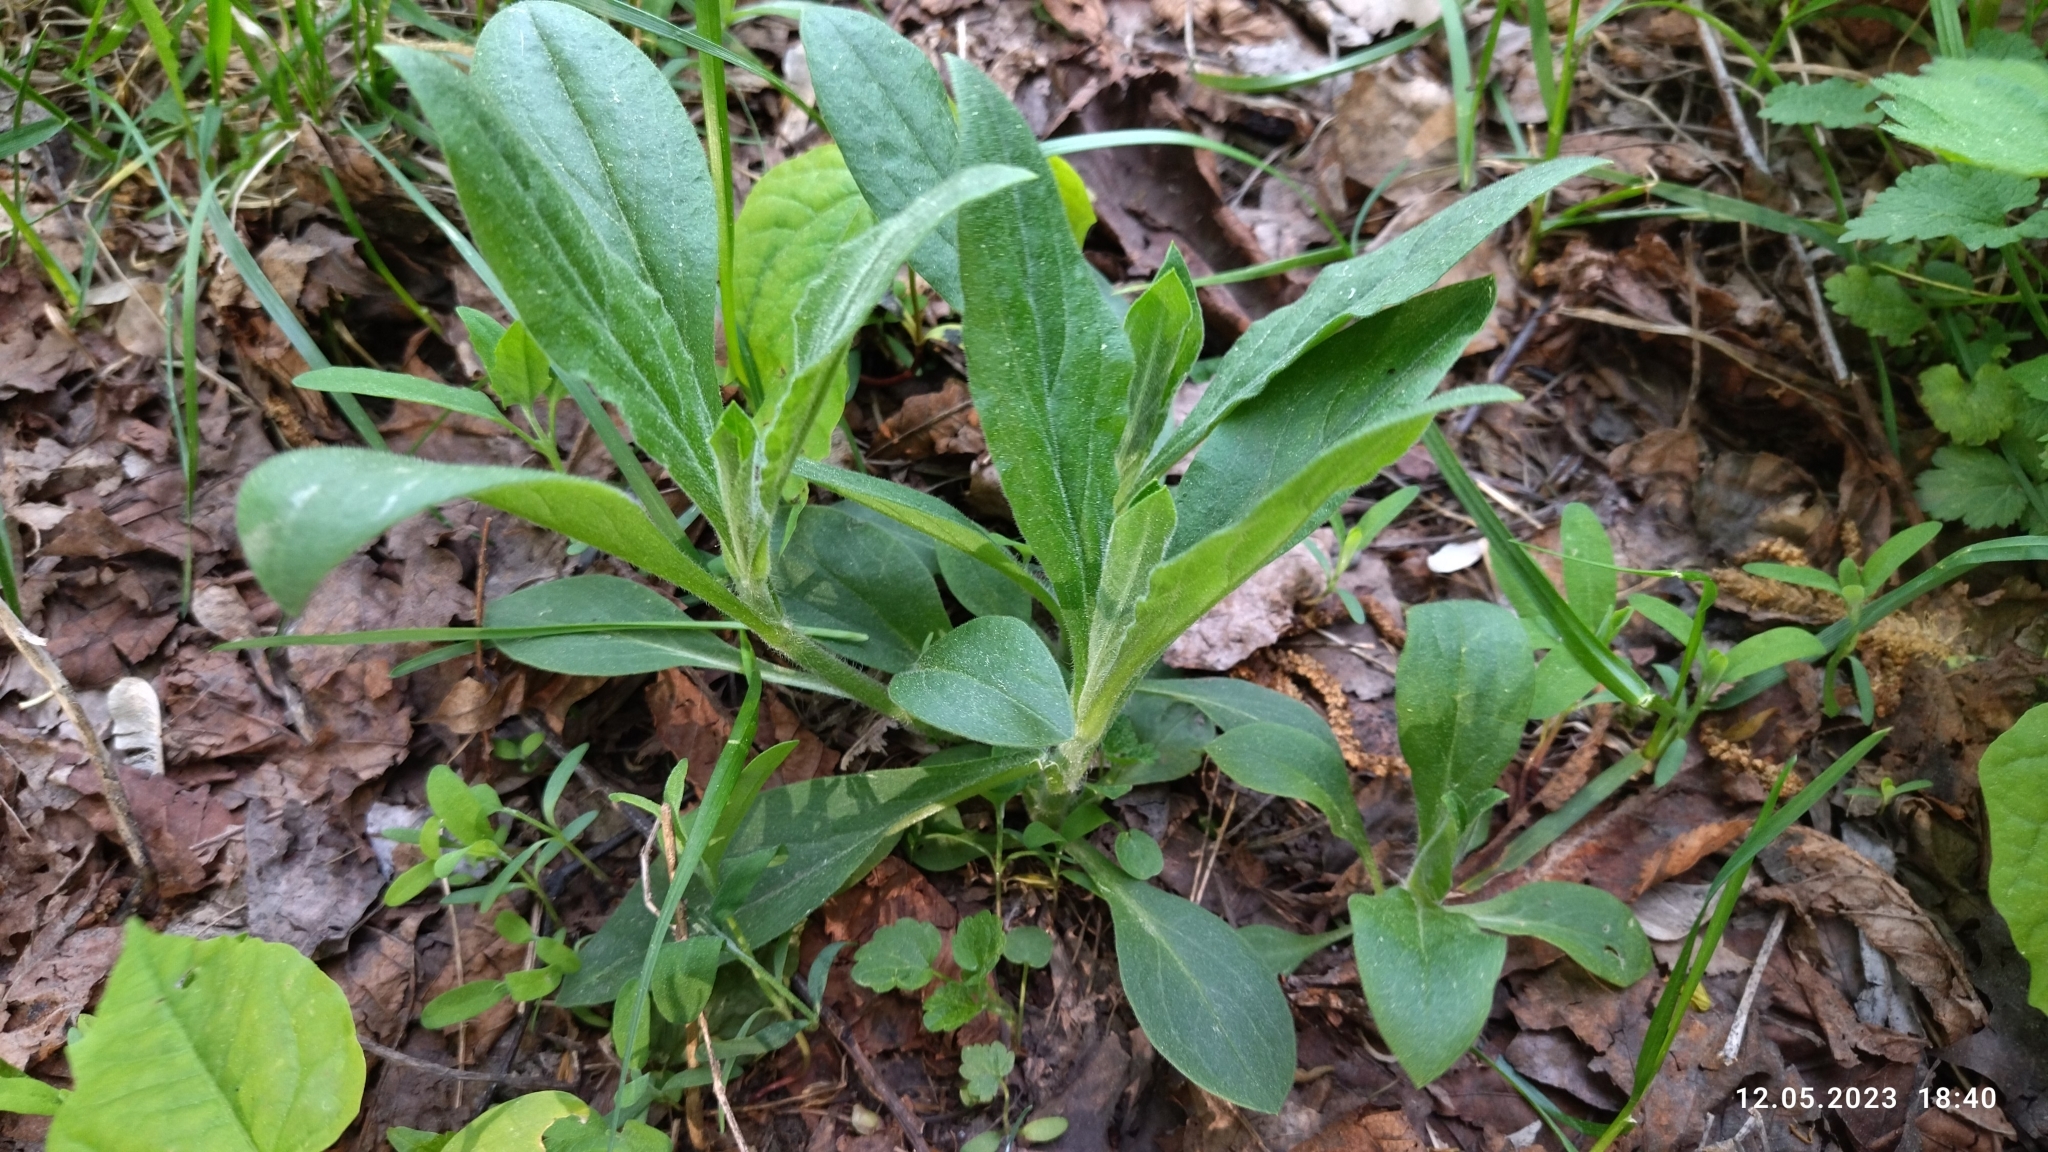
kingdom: Plantae
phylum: Tracheophyta
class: Magnoliopsida
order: Caryophyllales
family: Caryophyllaceae
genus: Silene
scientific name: Silene latifolia
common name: White campion
